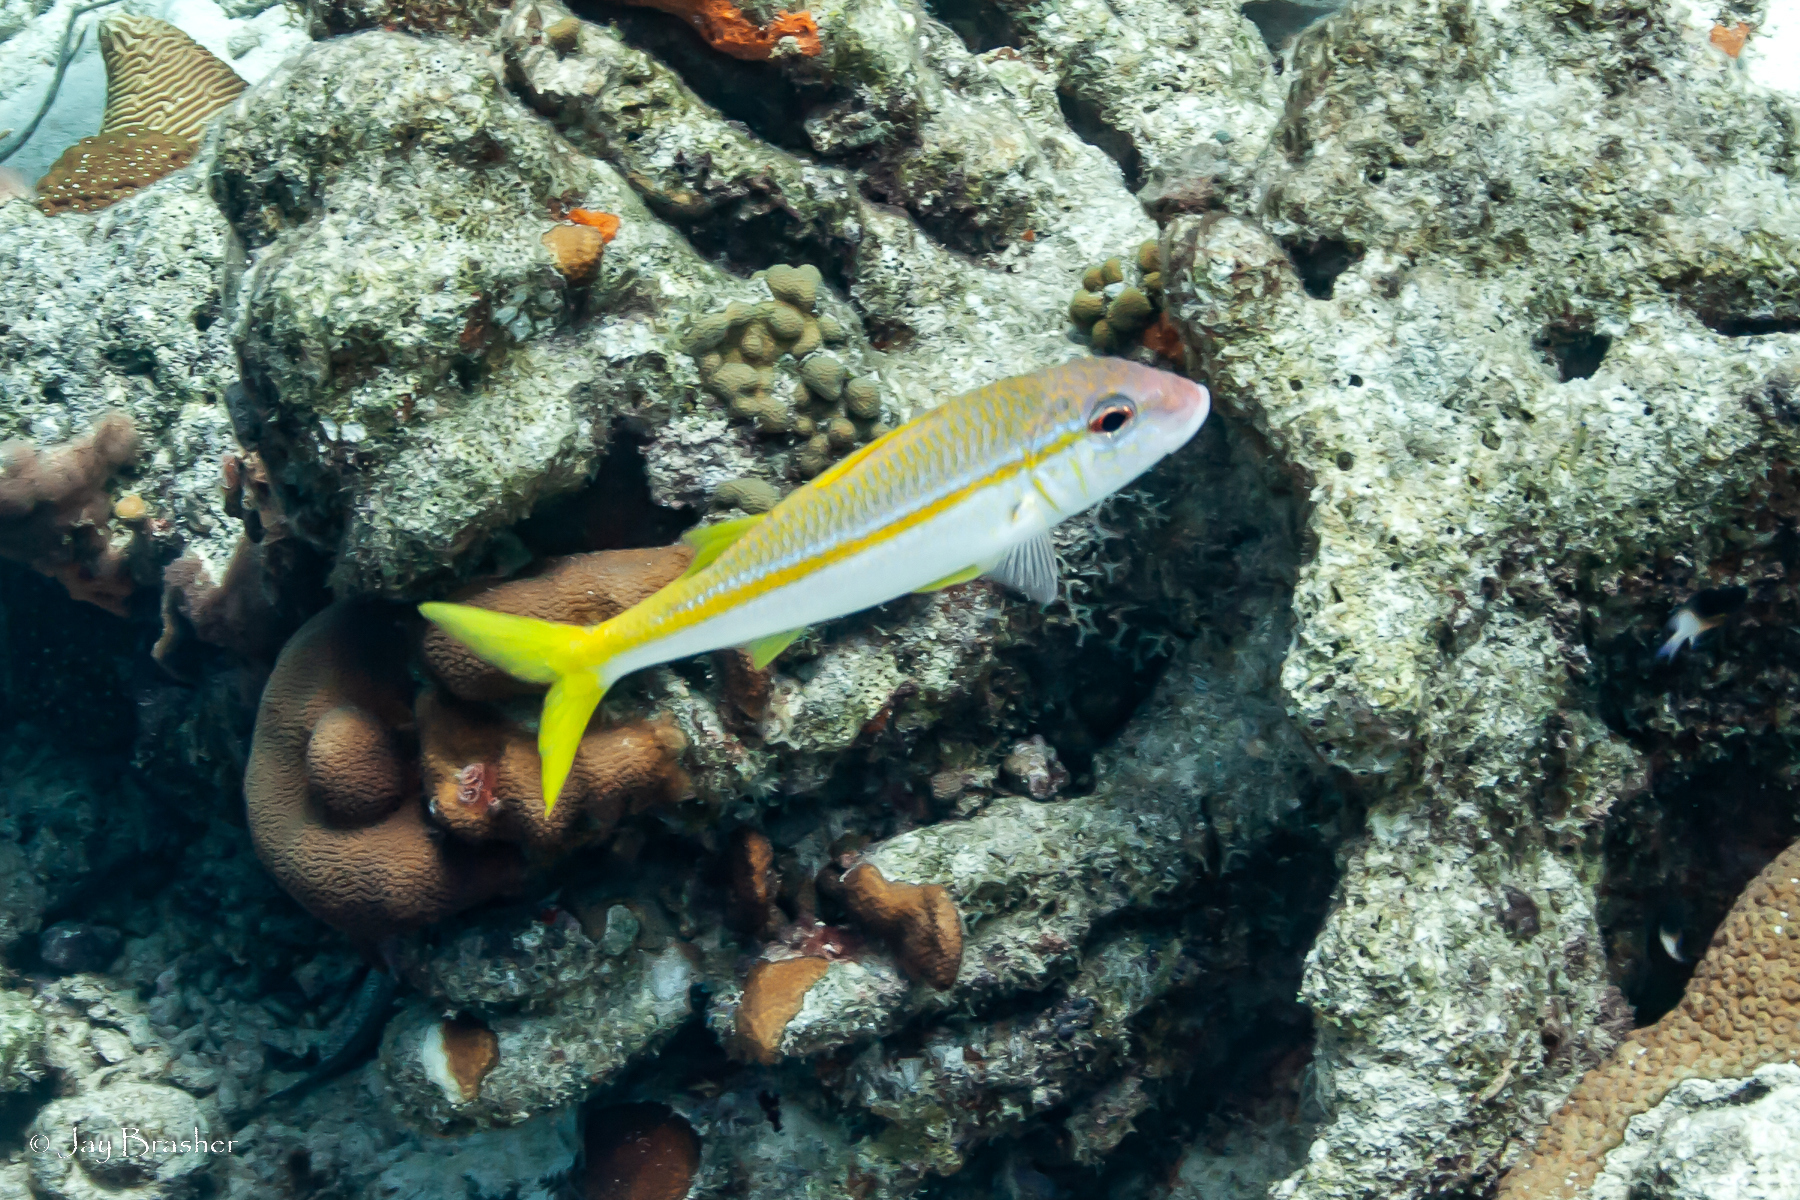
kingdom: Animalia
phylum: Chordata
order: Perciformes
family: Mullidae
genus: Mulloidichthys
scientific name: Mulloidichthys martinicus
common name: Yellow goatfish
